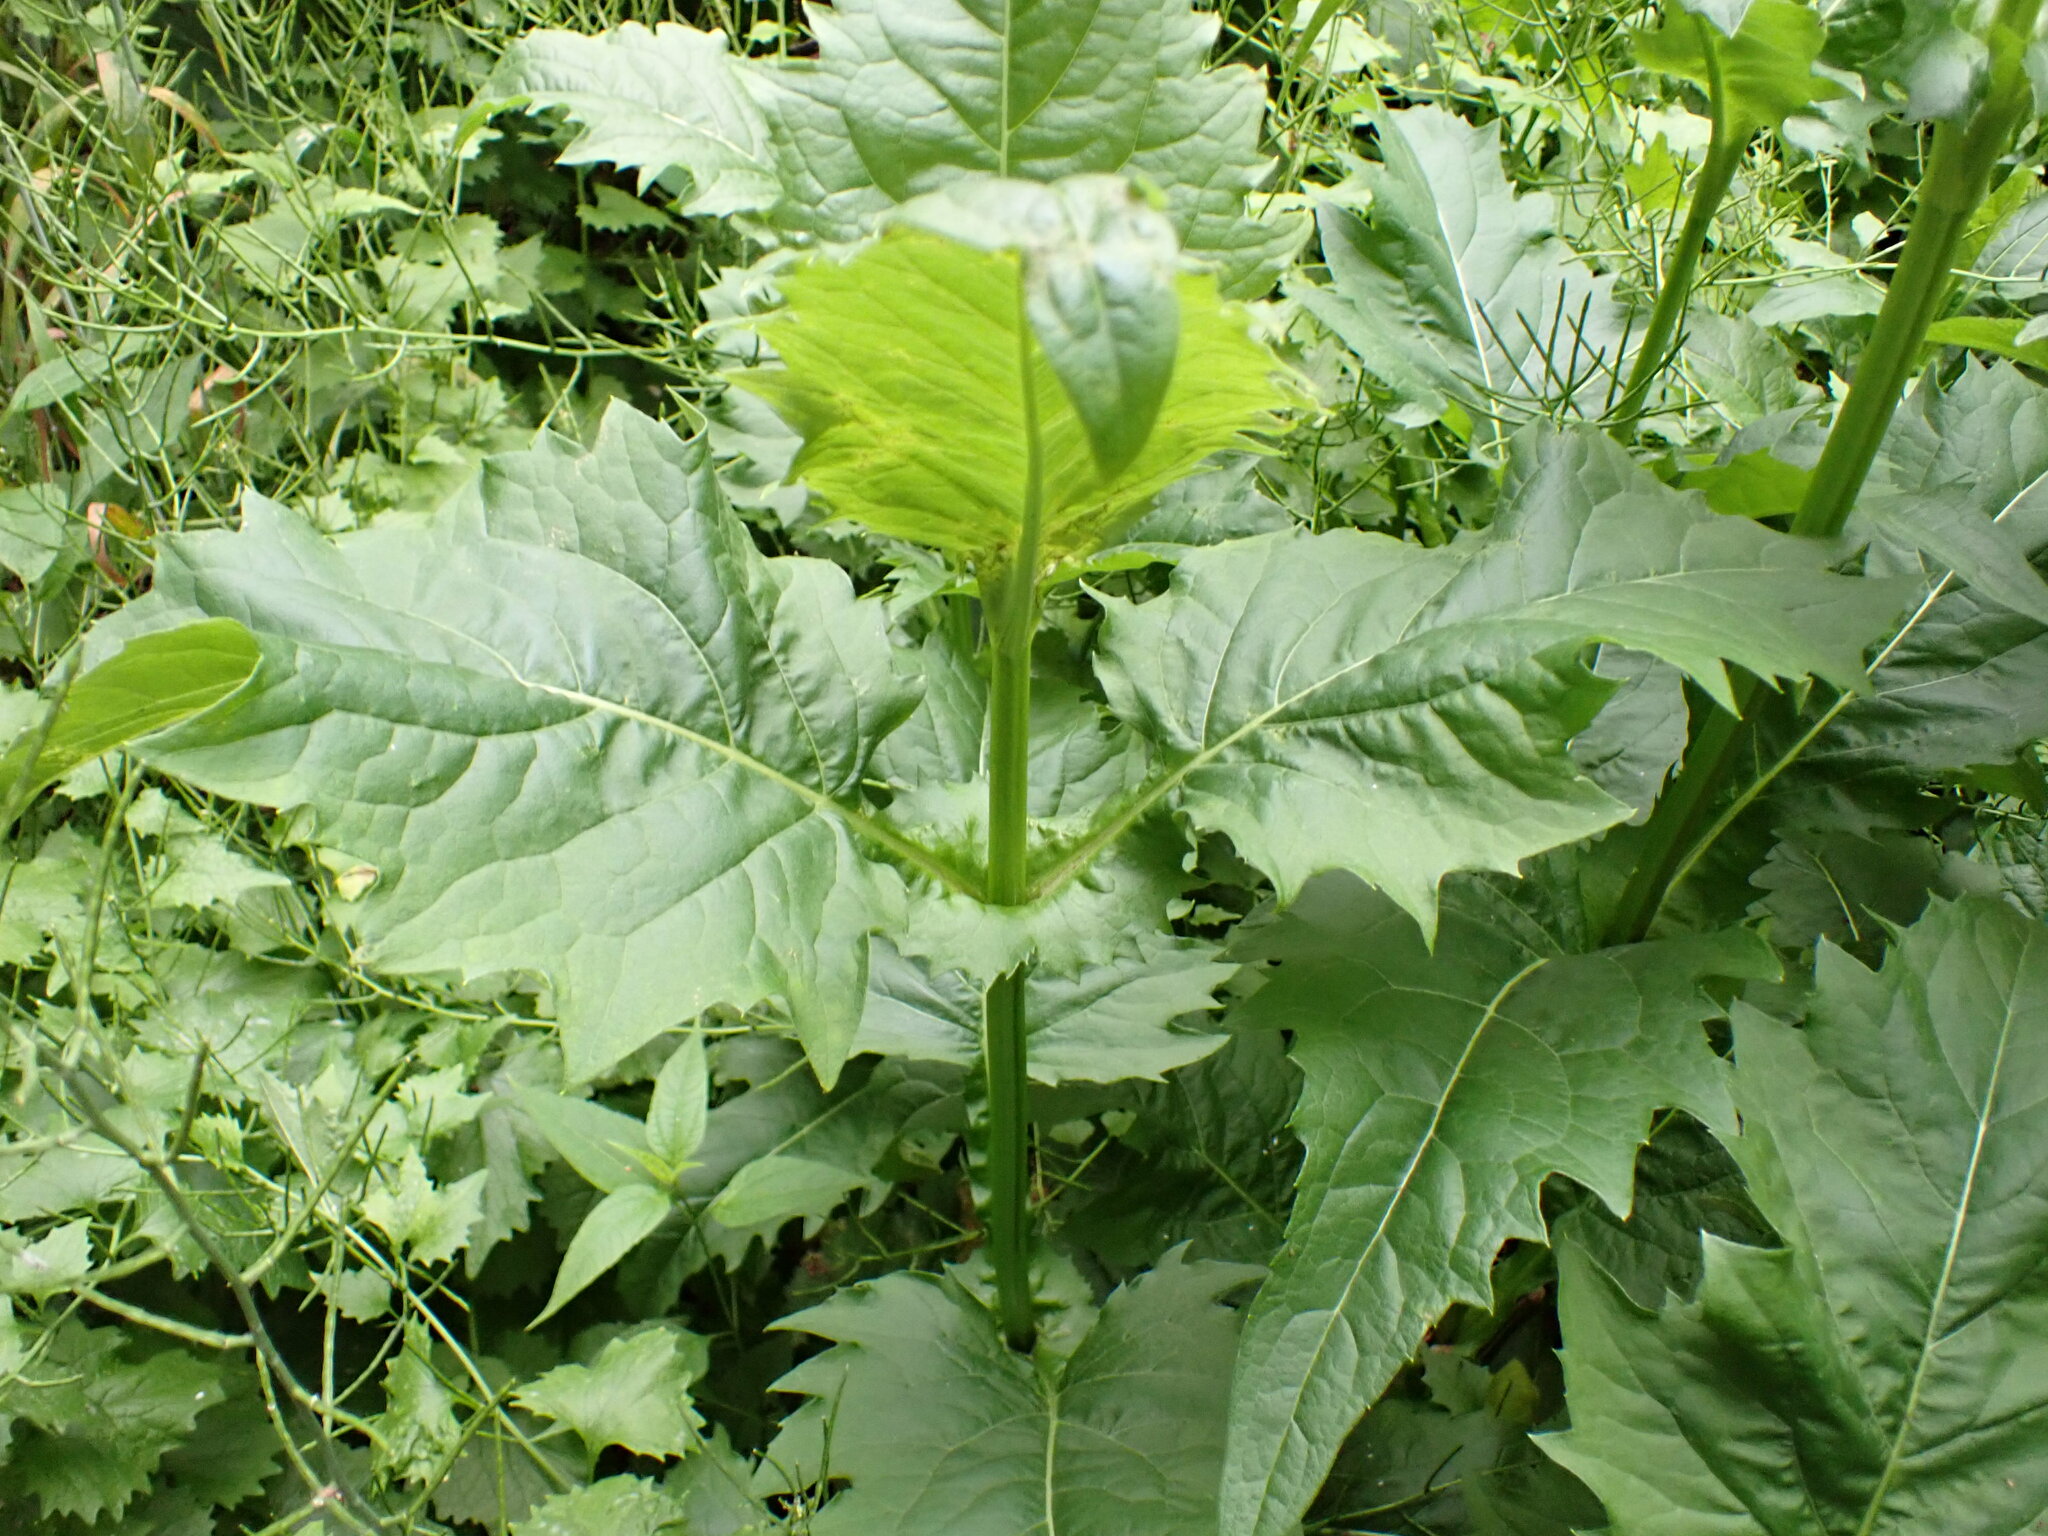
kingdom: Plantae
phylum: Tracheophyta
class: Magnoliopsida
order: Asterales
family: Asteraceae
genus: Silphium
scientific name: Silphium perfoliatum
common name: Cup-plant
